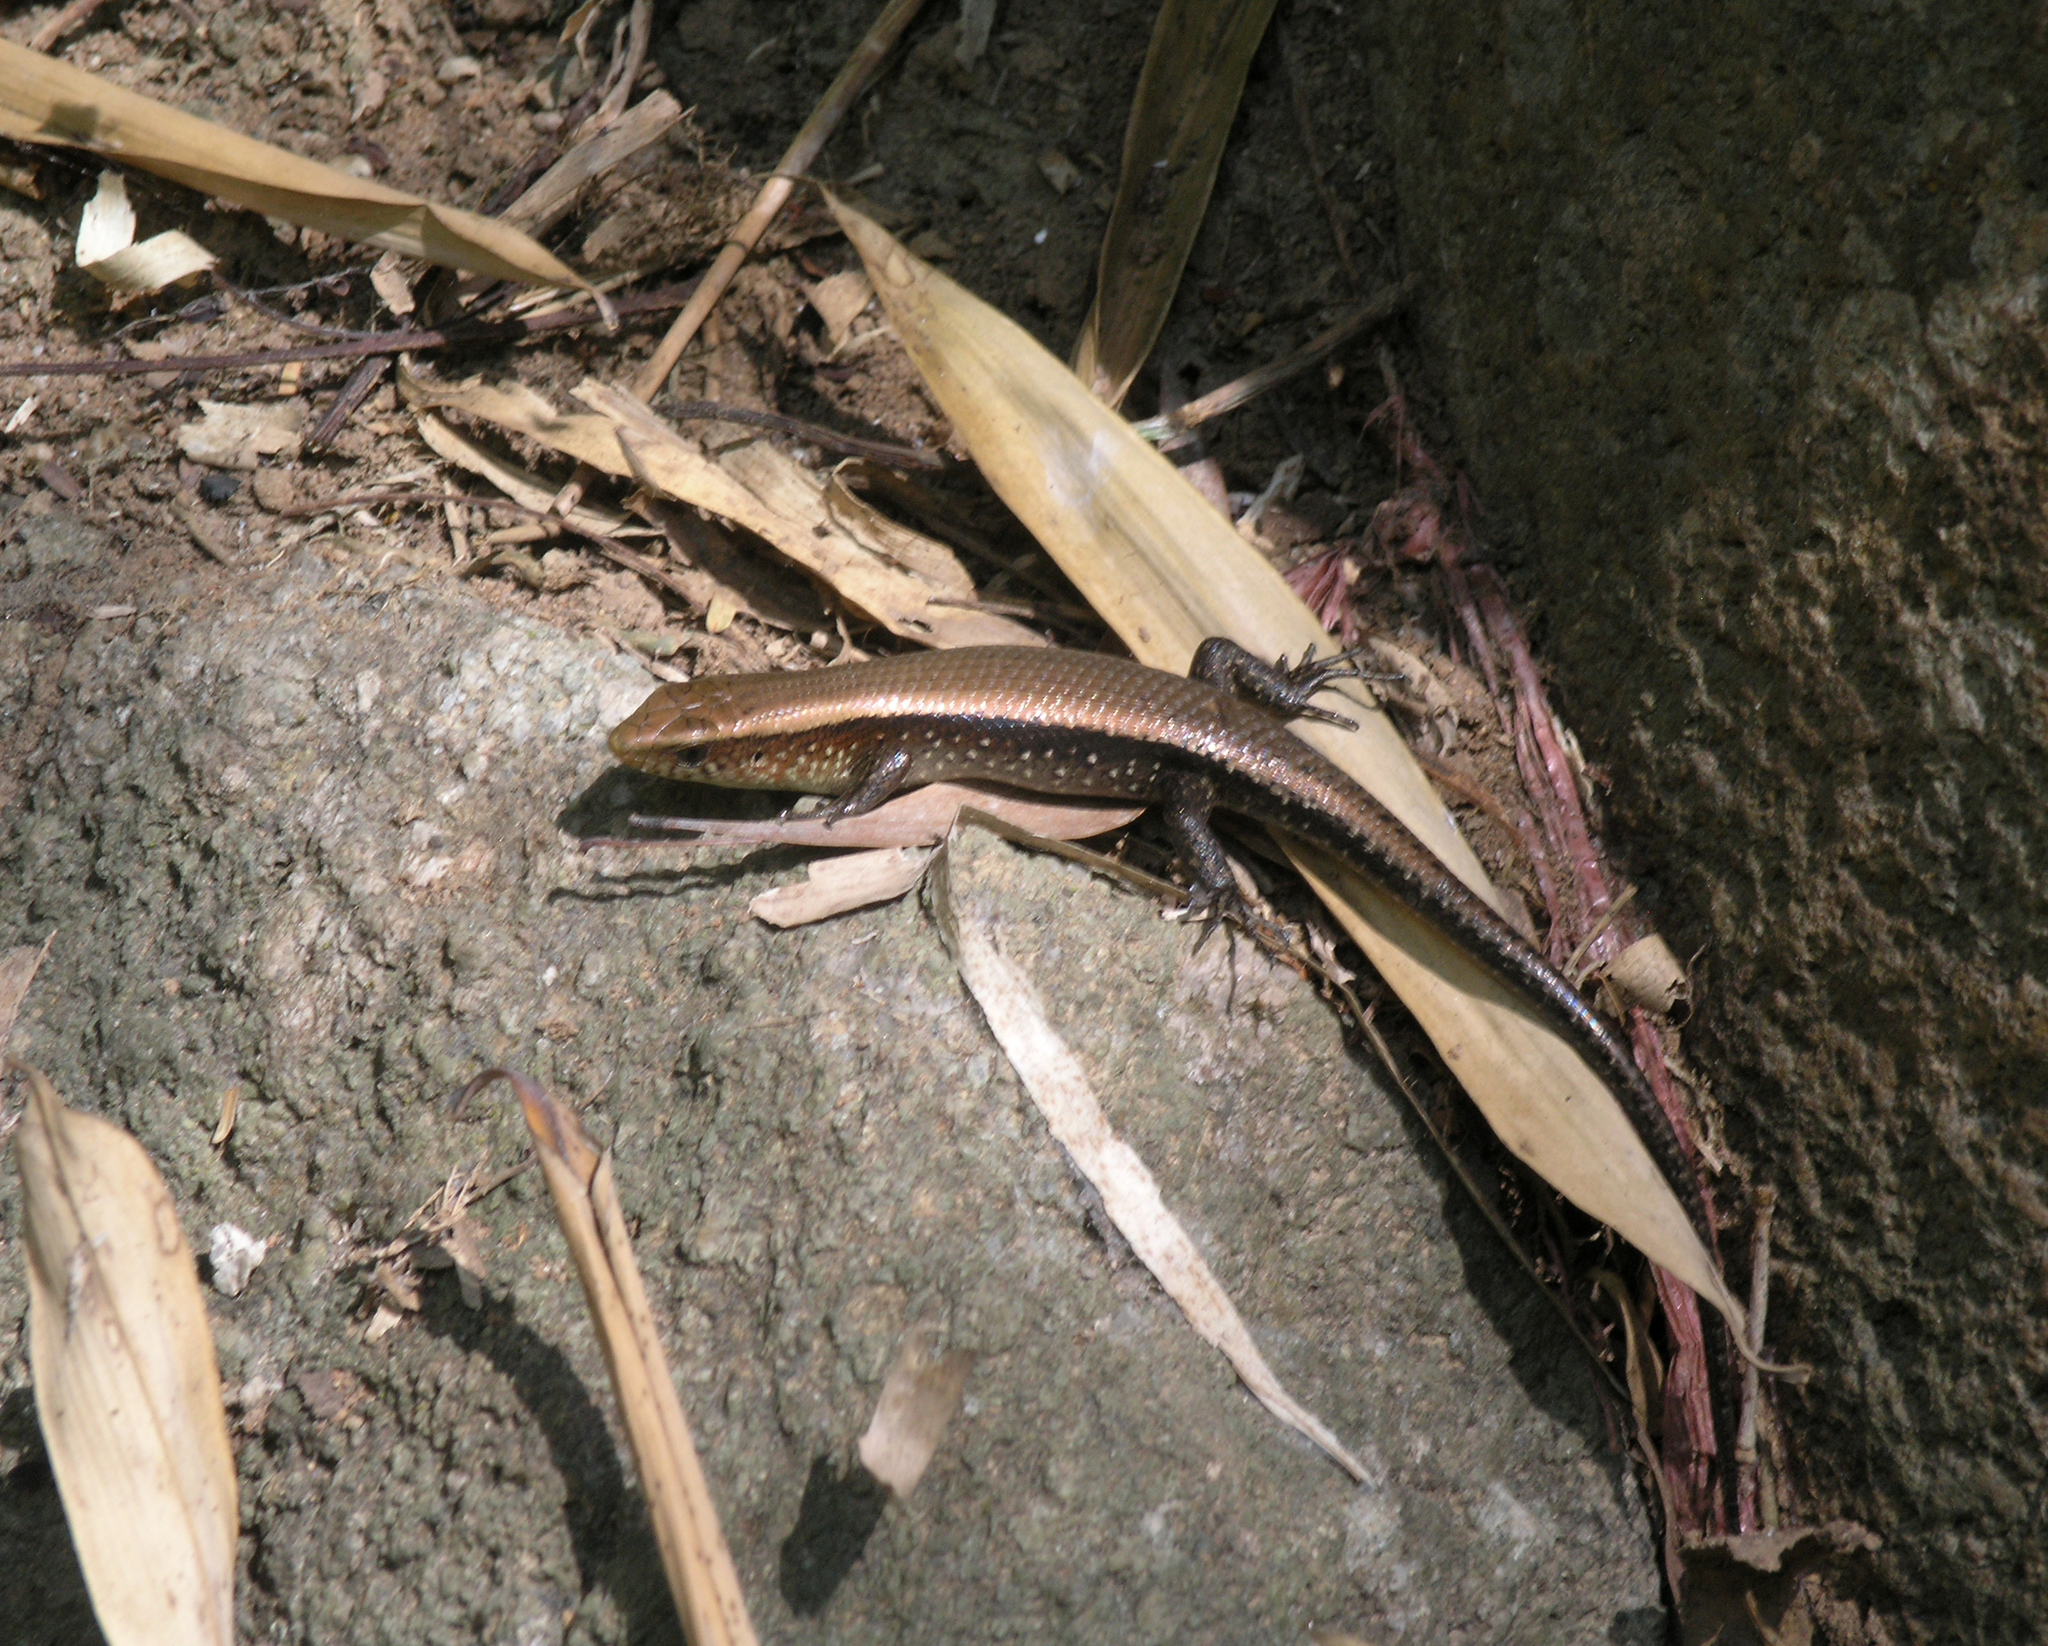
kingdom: Animalia
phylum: Chordata
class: Squamata
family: Scincidae
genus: Eutropis
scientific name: Eutropis multifasciata
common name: Common mabuya
